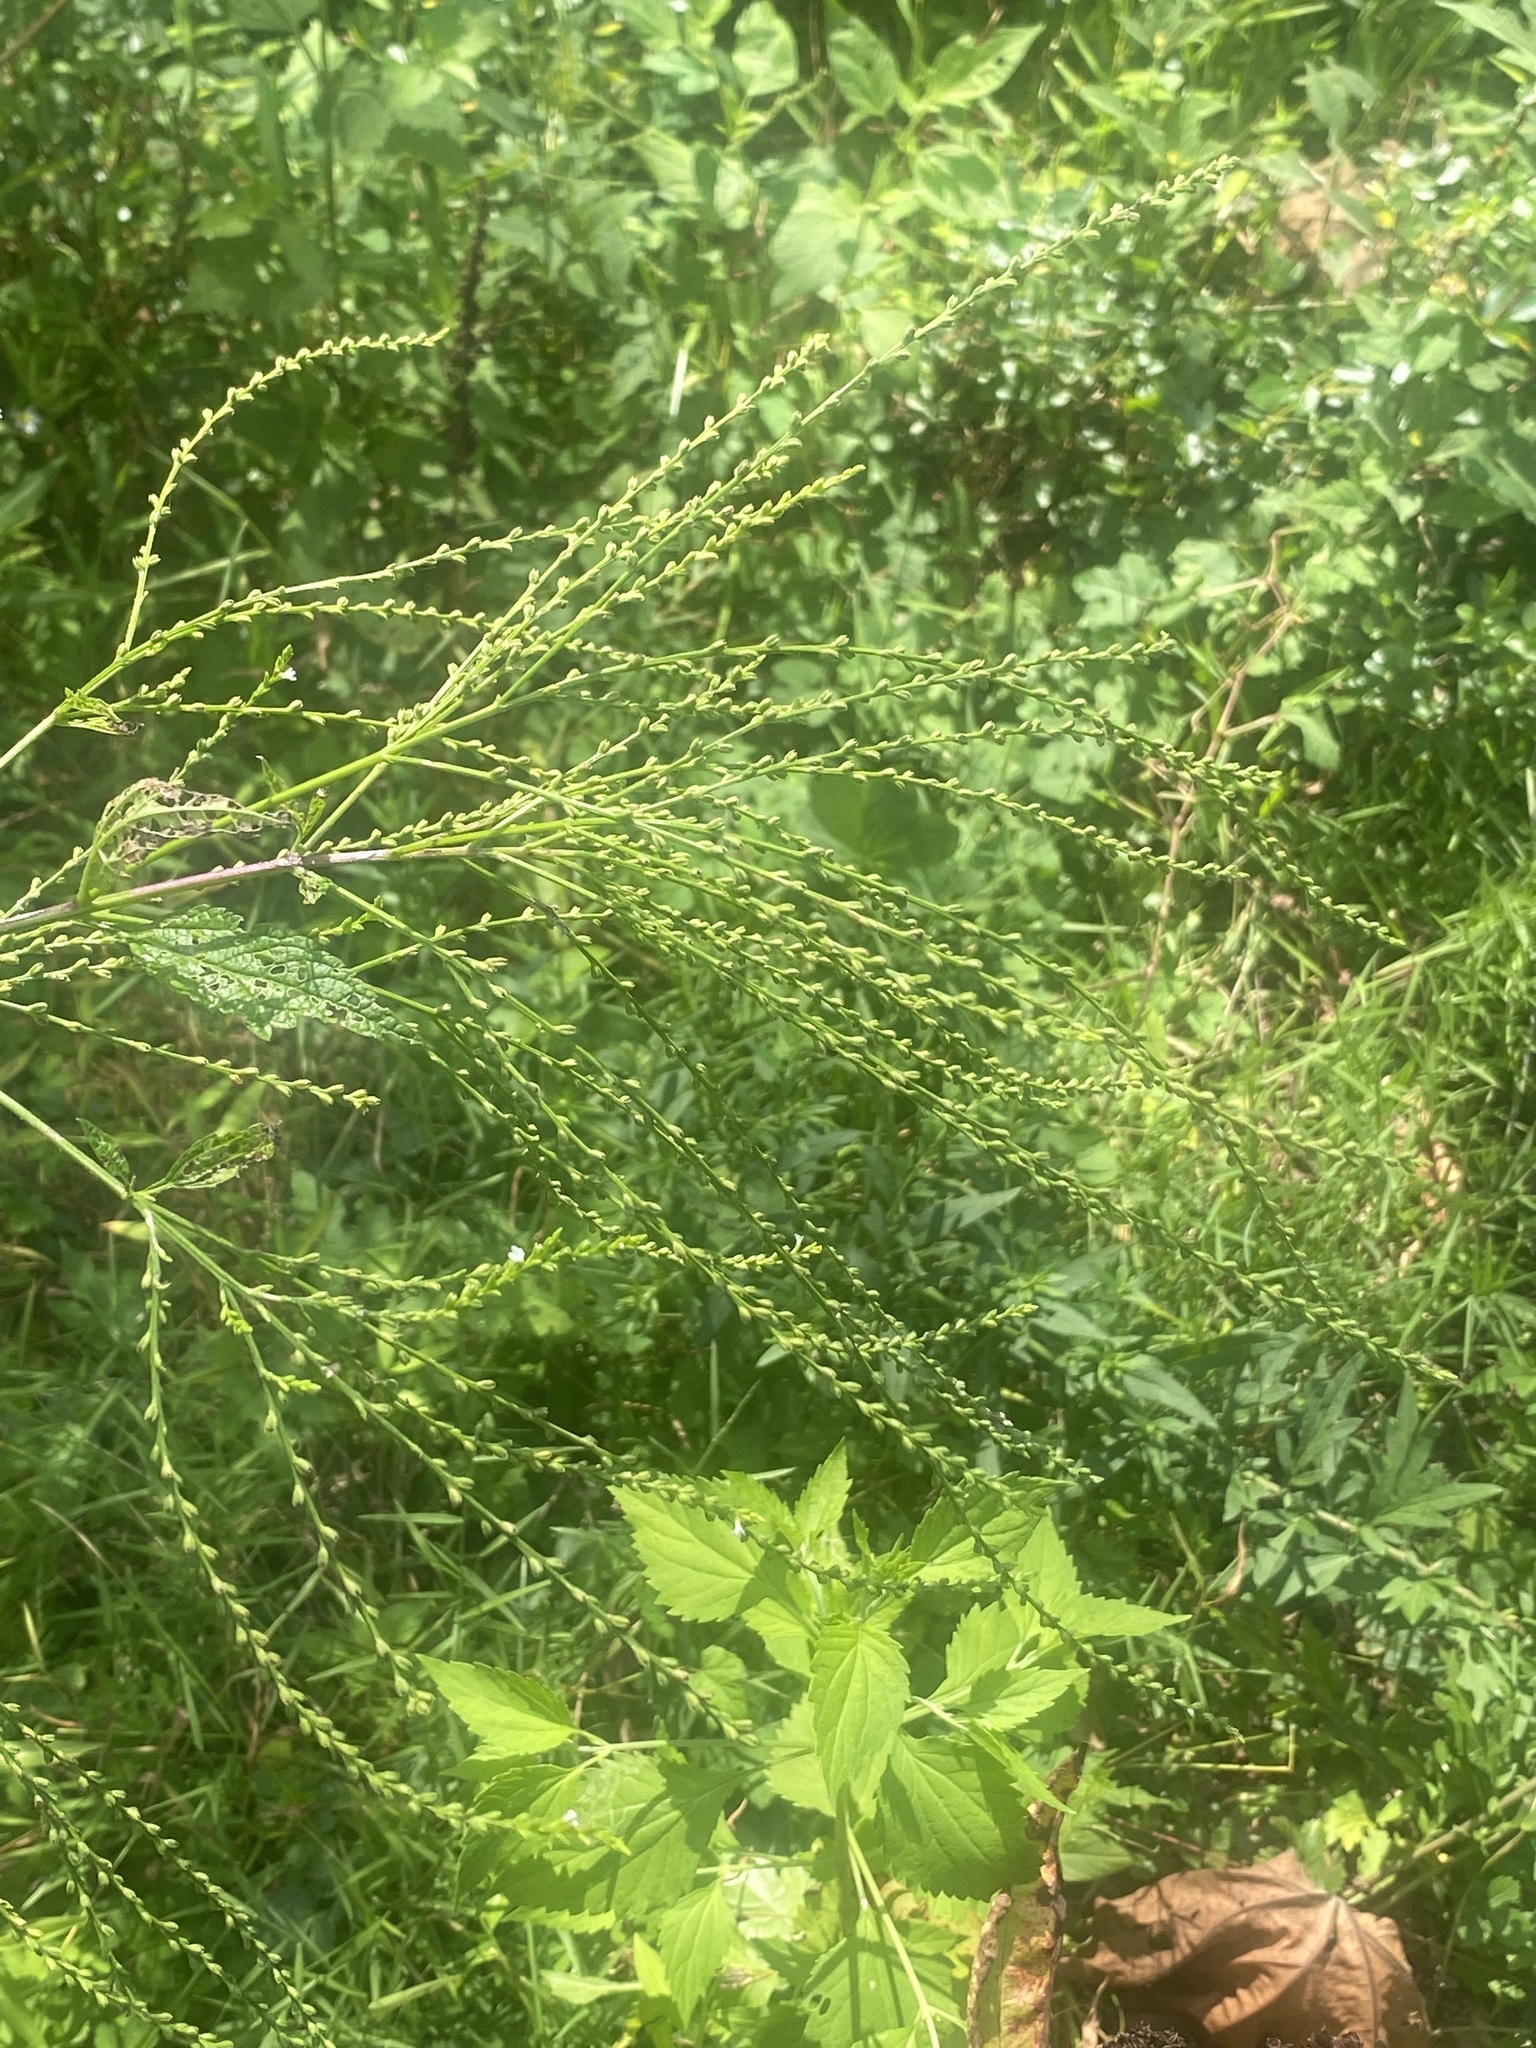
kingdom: Plantae
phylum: Tracheophyta
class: Magnoliopsida
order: Lamiales
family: Verbenaceae
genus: Verbena
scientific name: Verbena urticifolia
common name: Nettle-leaved vervain
